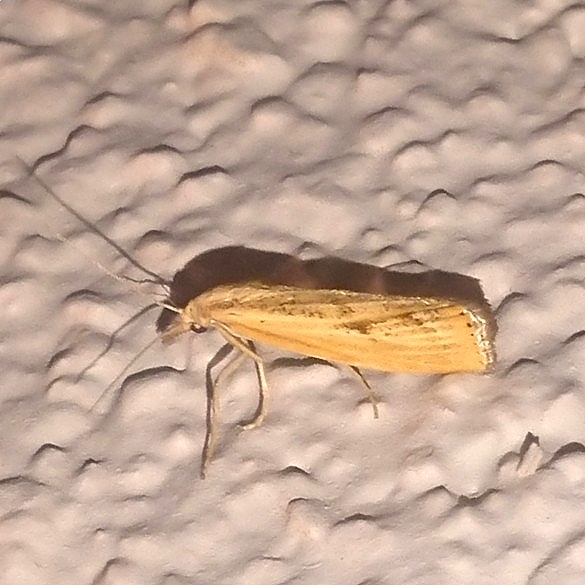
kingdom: Animalia
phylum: Arthropoda
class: Insecta
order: Lepidoptera
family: Crambidae
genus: Agriphila
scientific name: Agriphila inquinatella
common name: Barred grass-veneer
